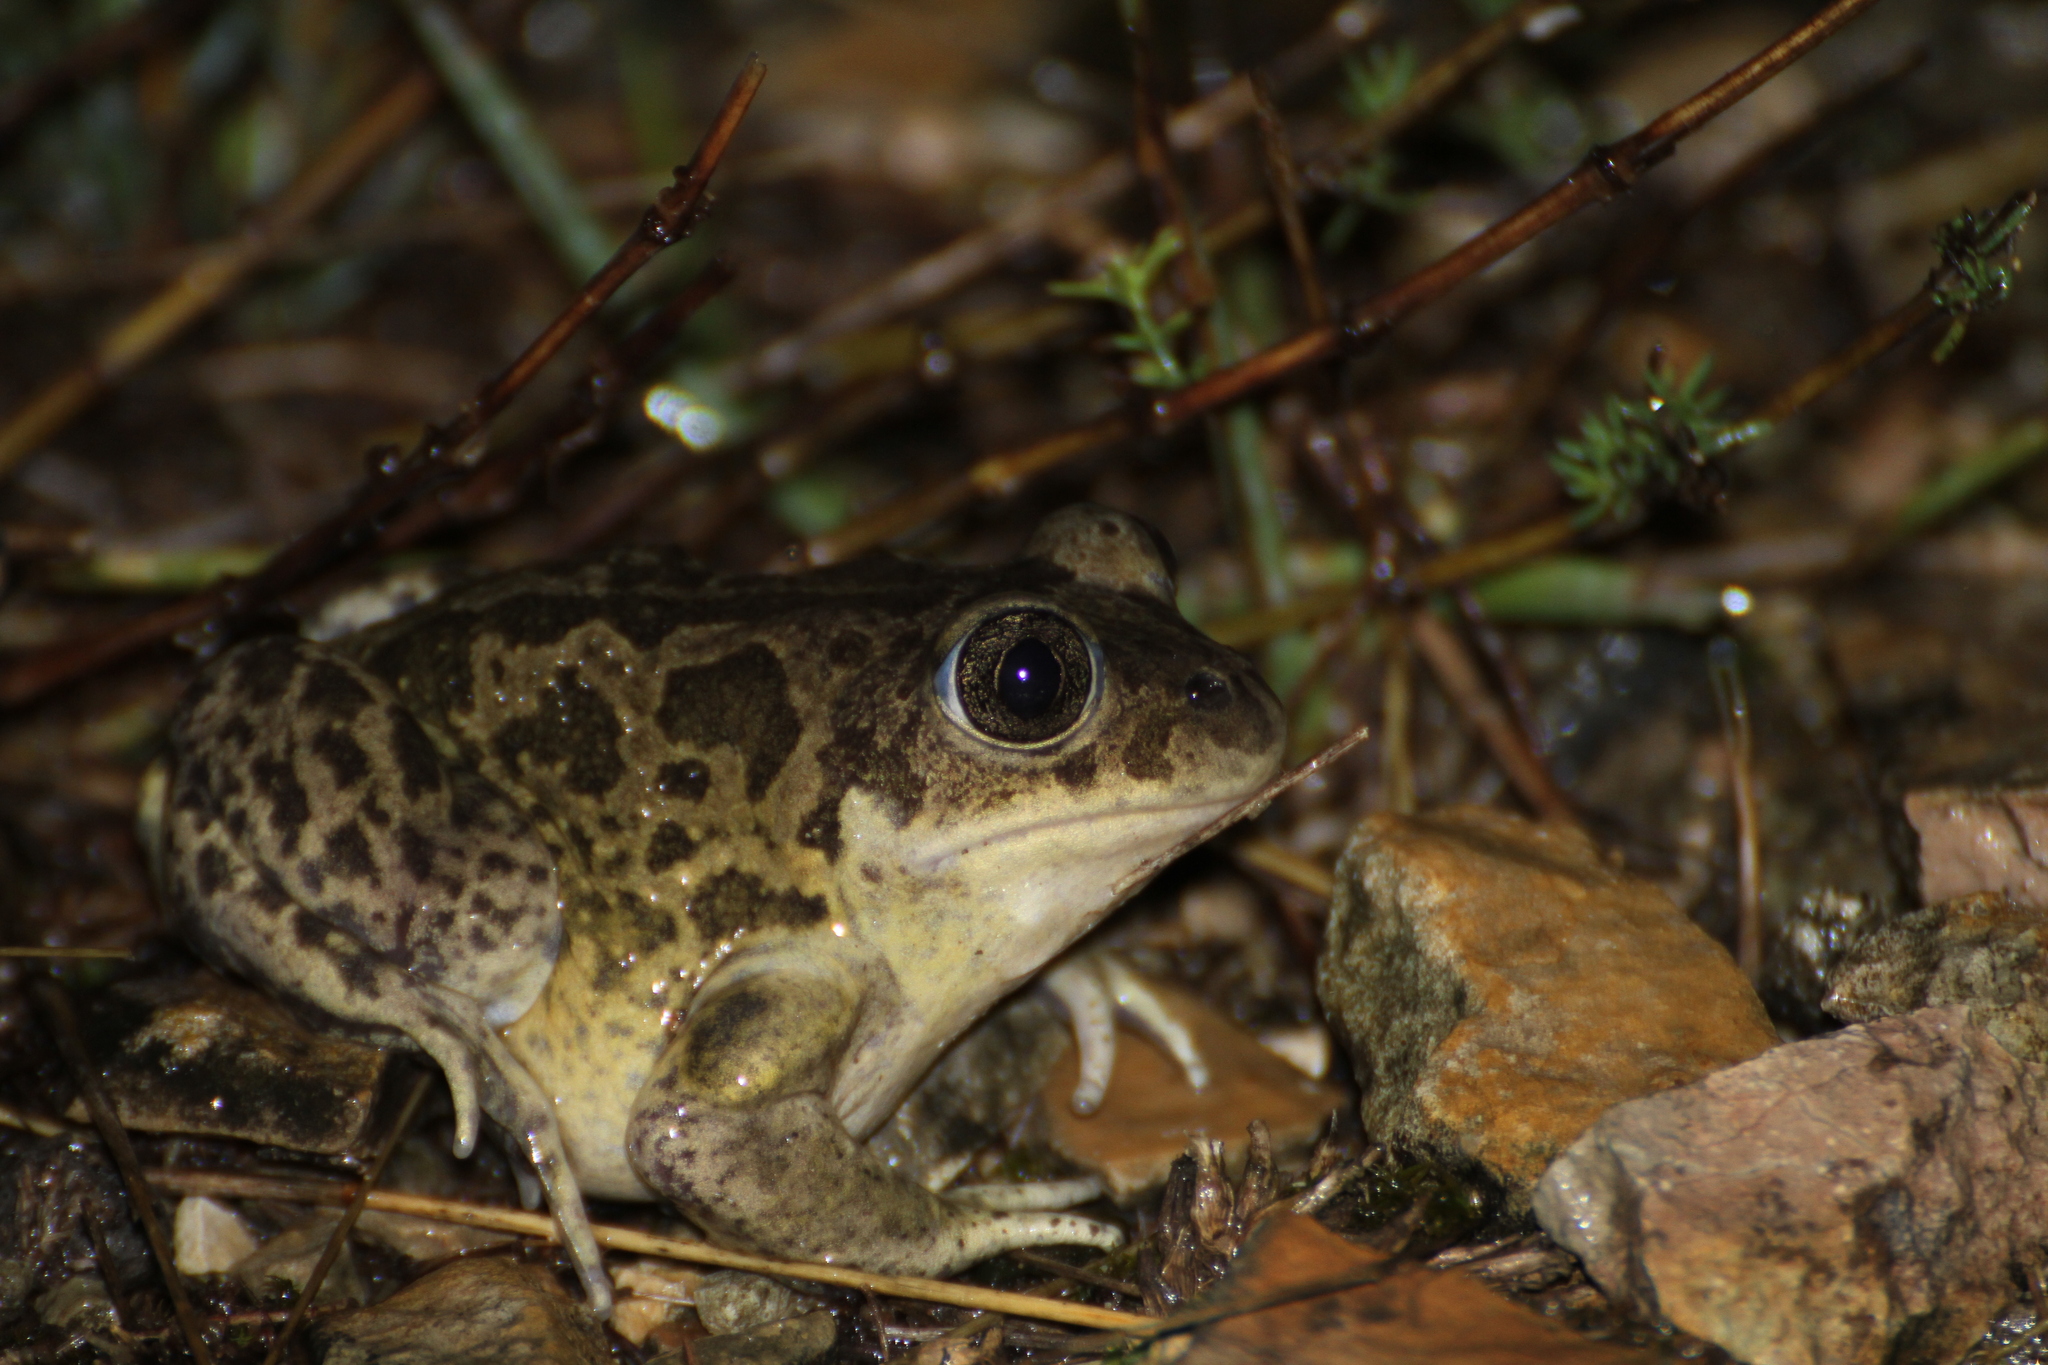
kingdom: Animalia
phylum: Chordata
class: Amphibia
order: Anura
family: Pelobatidae
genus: Pelobates
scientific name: Pelobates cultripes
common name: Western spadefoot
